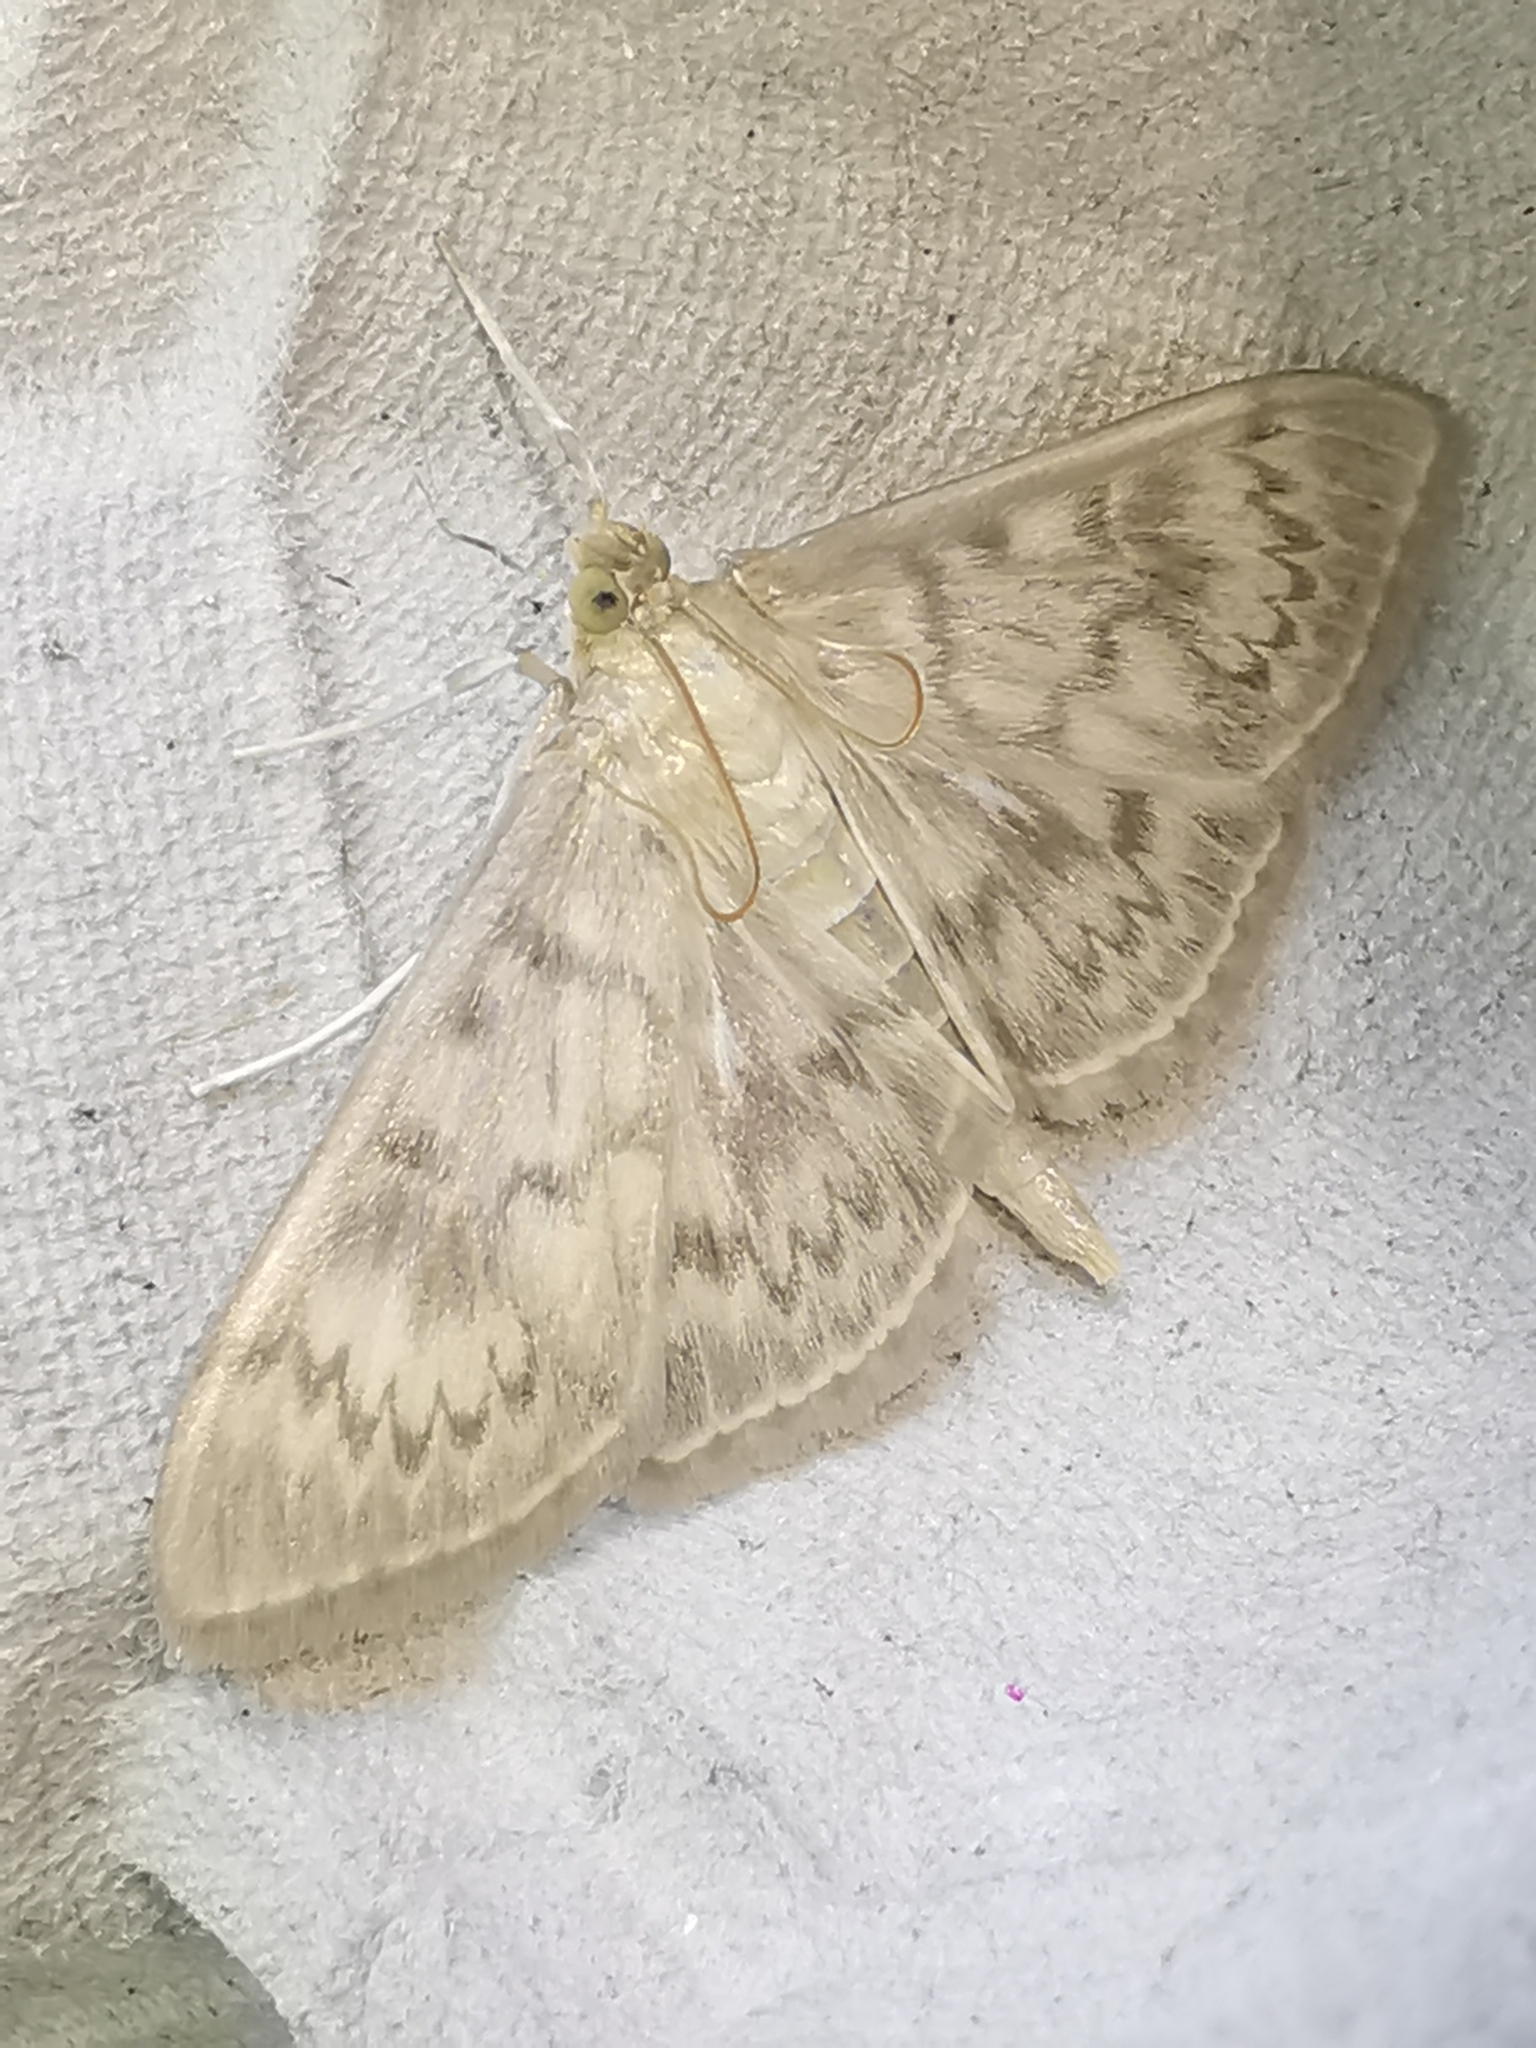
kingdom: Animalia
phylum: Arthropoda
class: Insecta
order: Lepidoptera
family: Crambidae
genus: Patania
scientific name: Patania ruralis
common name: Mother of pearl
